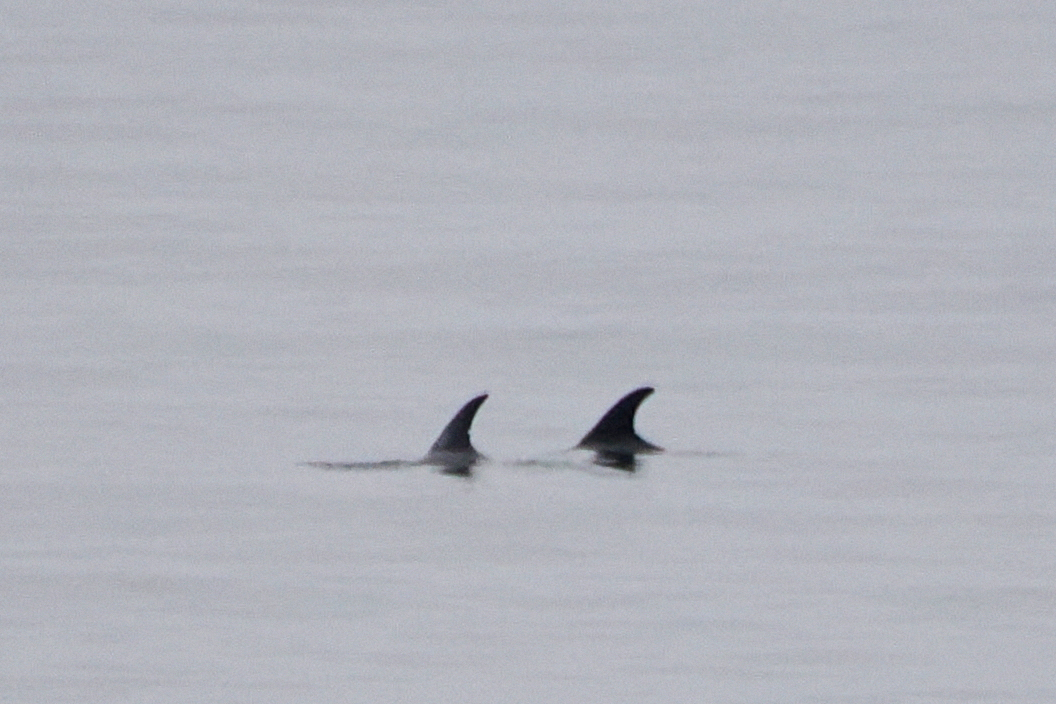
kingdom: Animalia
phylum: Chordata
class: Mammalia
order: Cetacea
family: Delphinidae
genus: Lagenorhynchus
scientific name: Lagenorhynchus albirostris
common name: White-beaked dolphin
